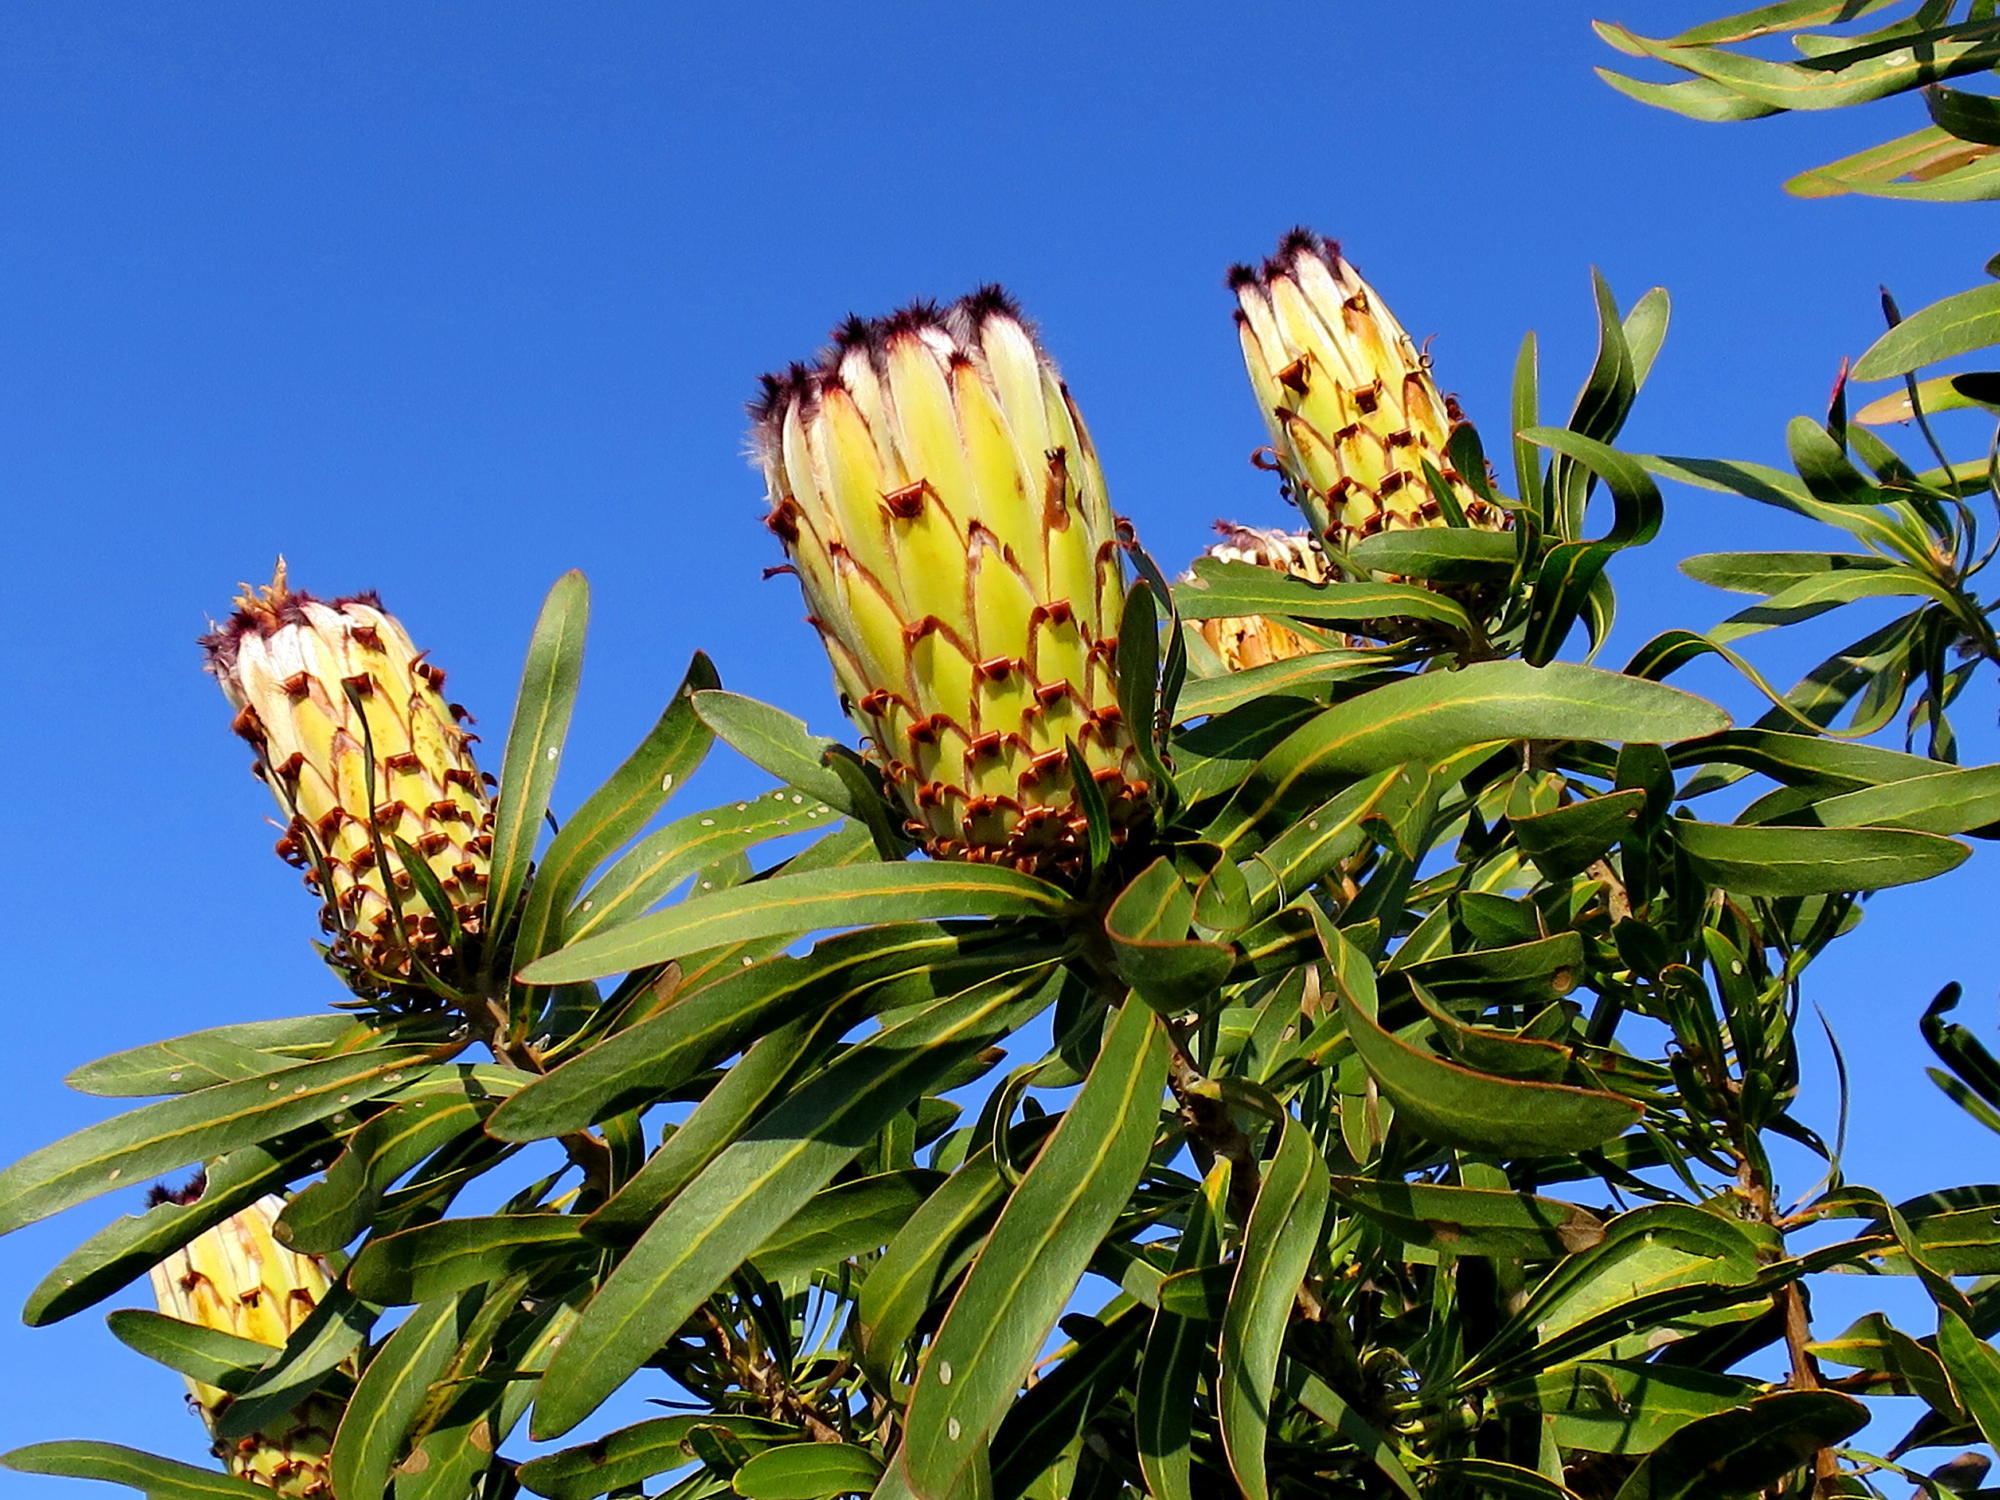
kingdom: Plantae
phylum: Tracheophyta
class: Magnoliopsida
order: Proteales
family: Proteaceae
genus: Protea
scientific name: Protea neriifolia
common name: Blue sugarbush
